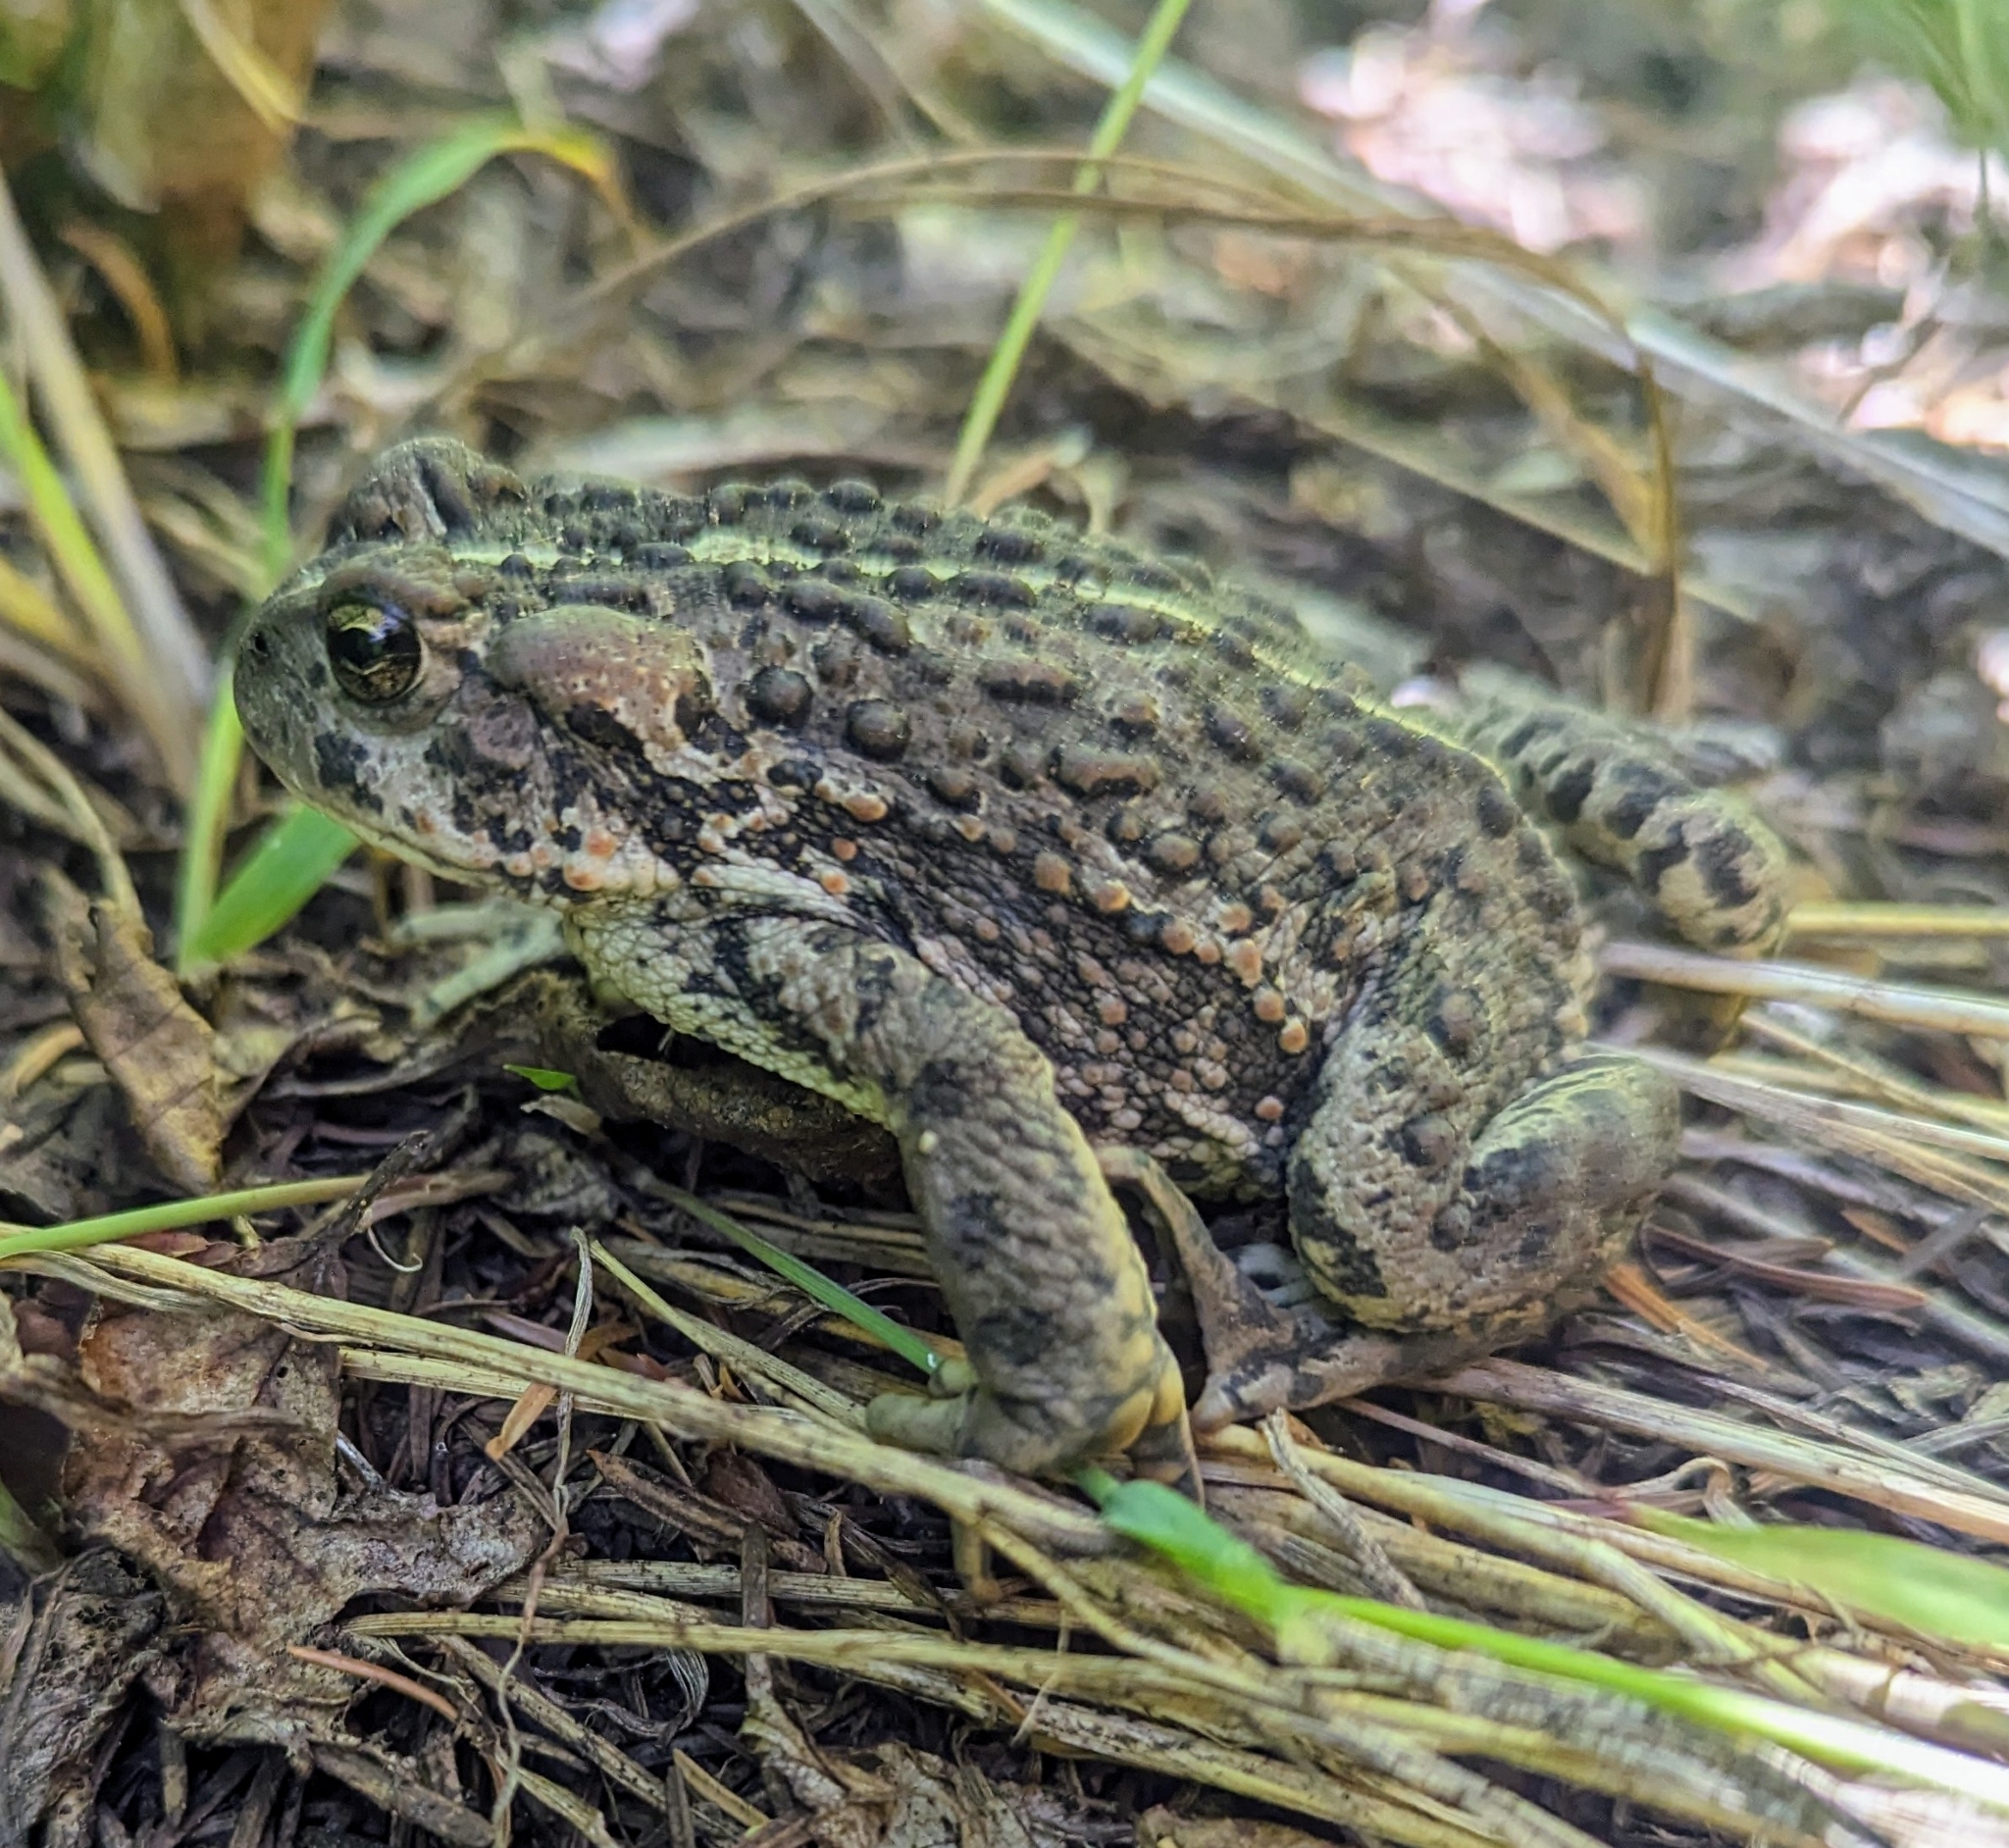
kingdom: Animalia
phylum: Chordata
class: Amphibia
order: Anura
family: Bufonidae
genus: Anaxyrus
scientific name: Anaxyrus boreas
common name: Western toad
